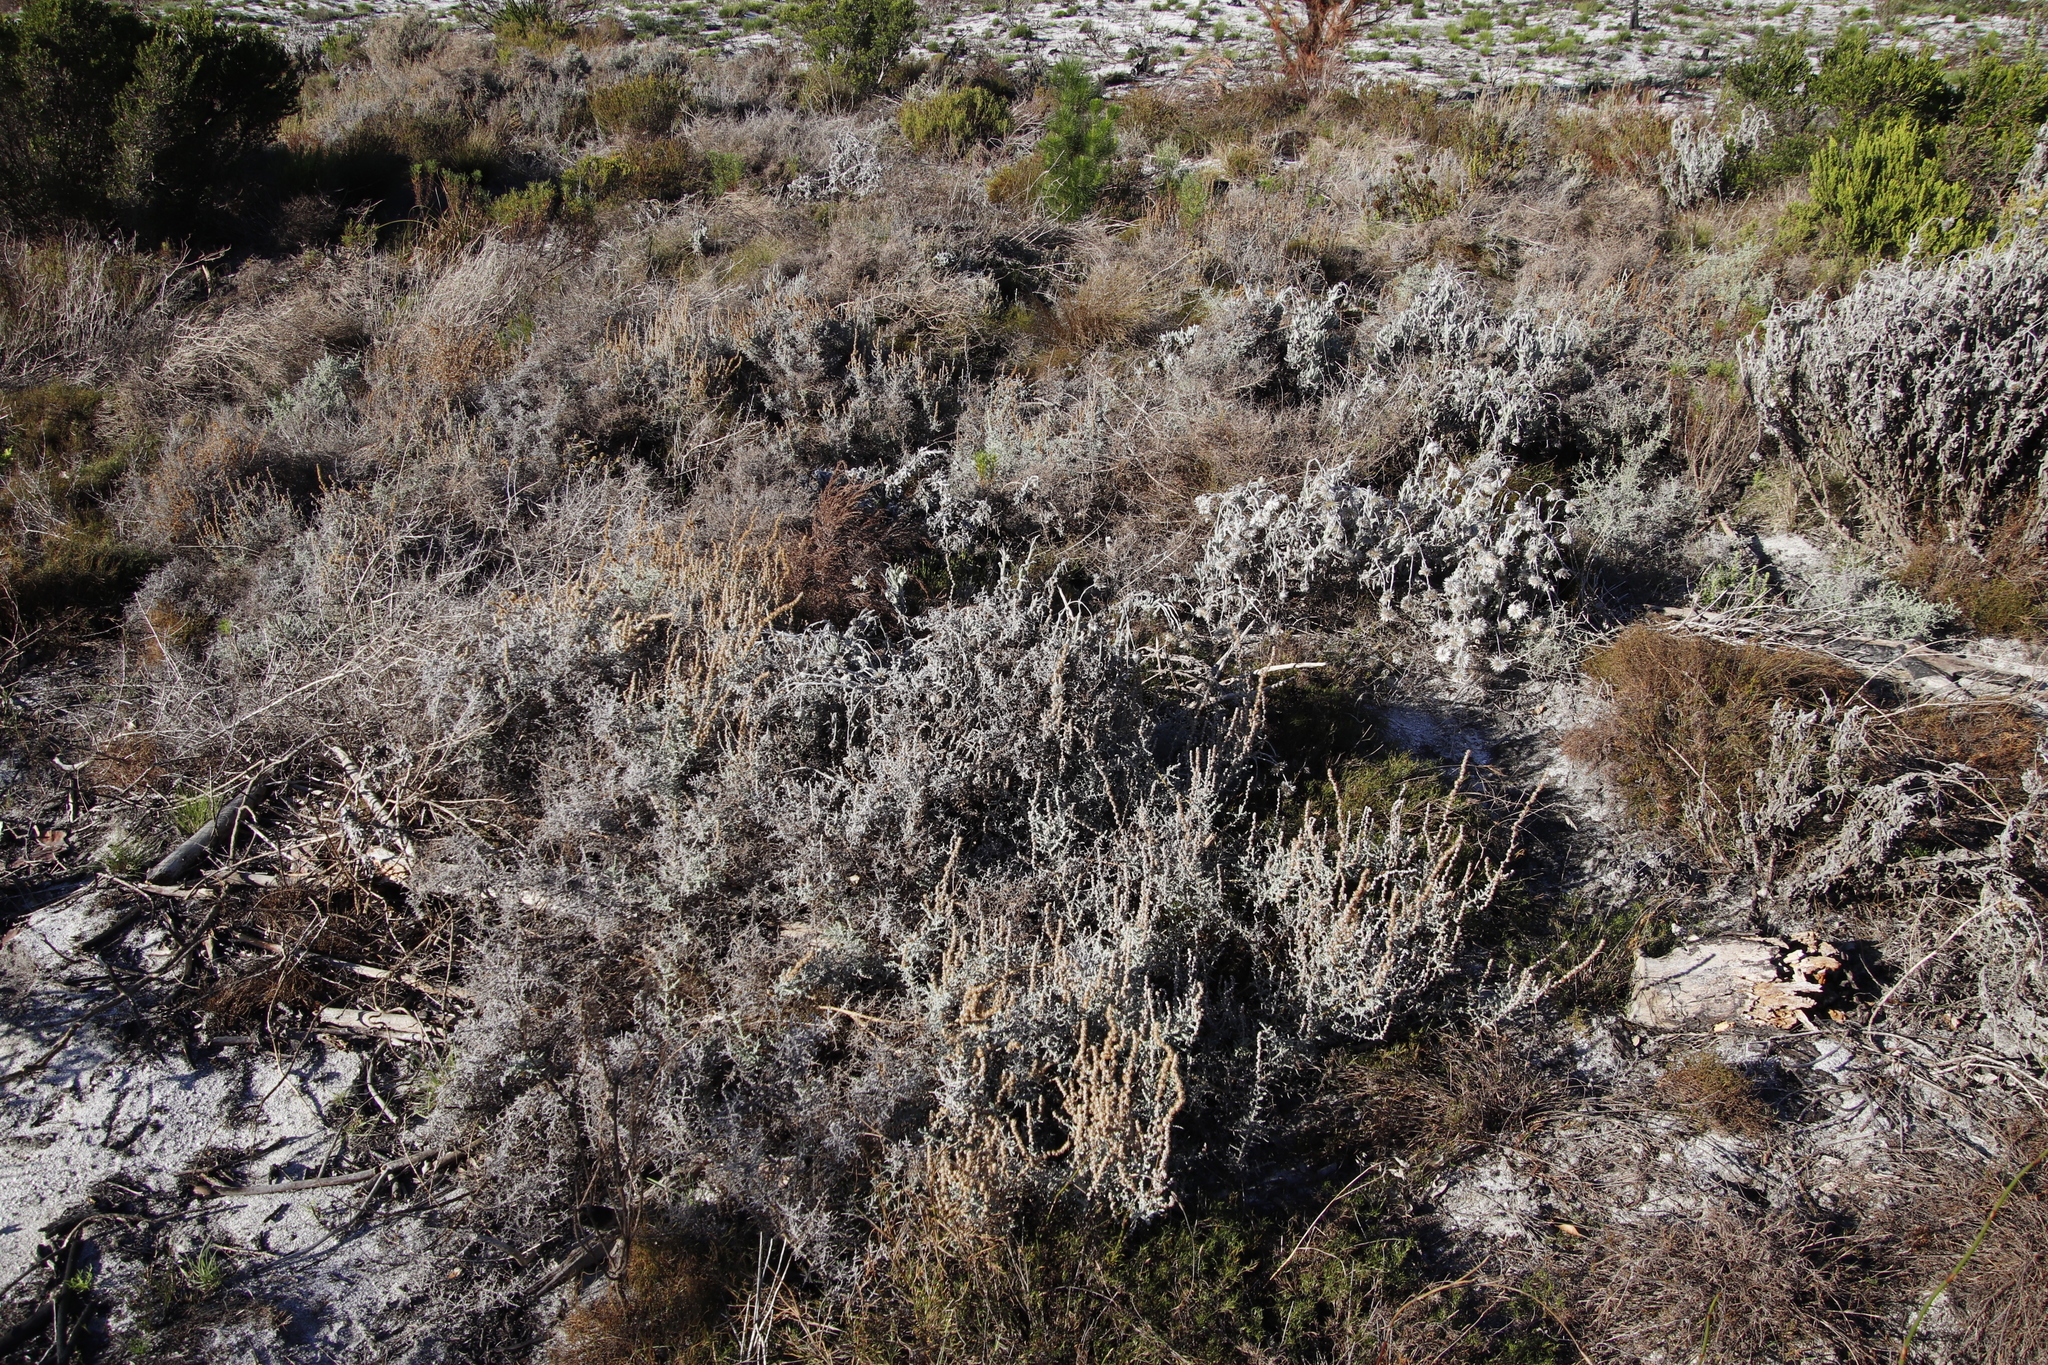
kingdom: Plantae
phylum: Tracheophyta
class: Magnoliopsida
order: Asterales
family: Asteraceae
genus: Seriphium
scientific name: Seriphium plumosum
